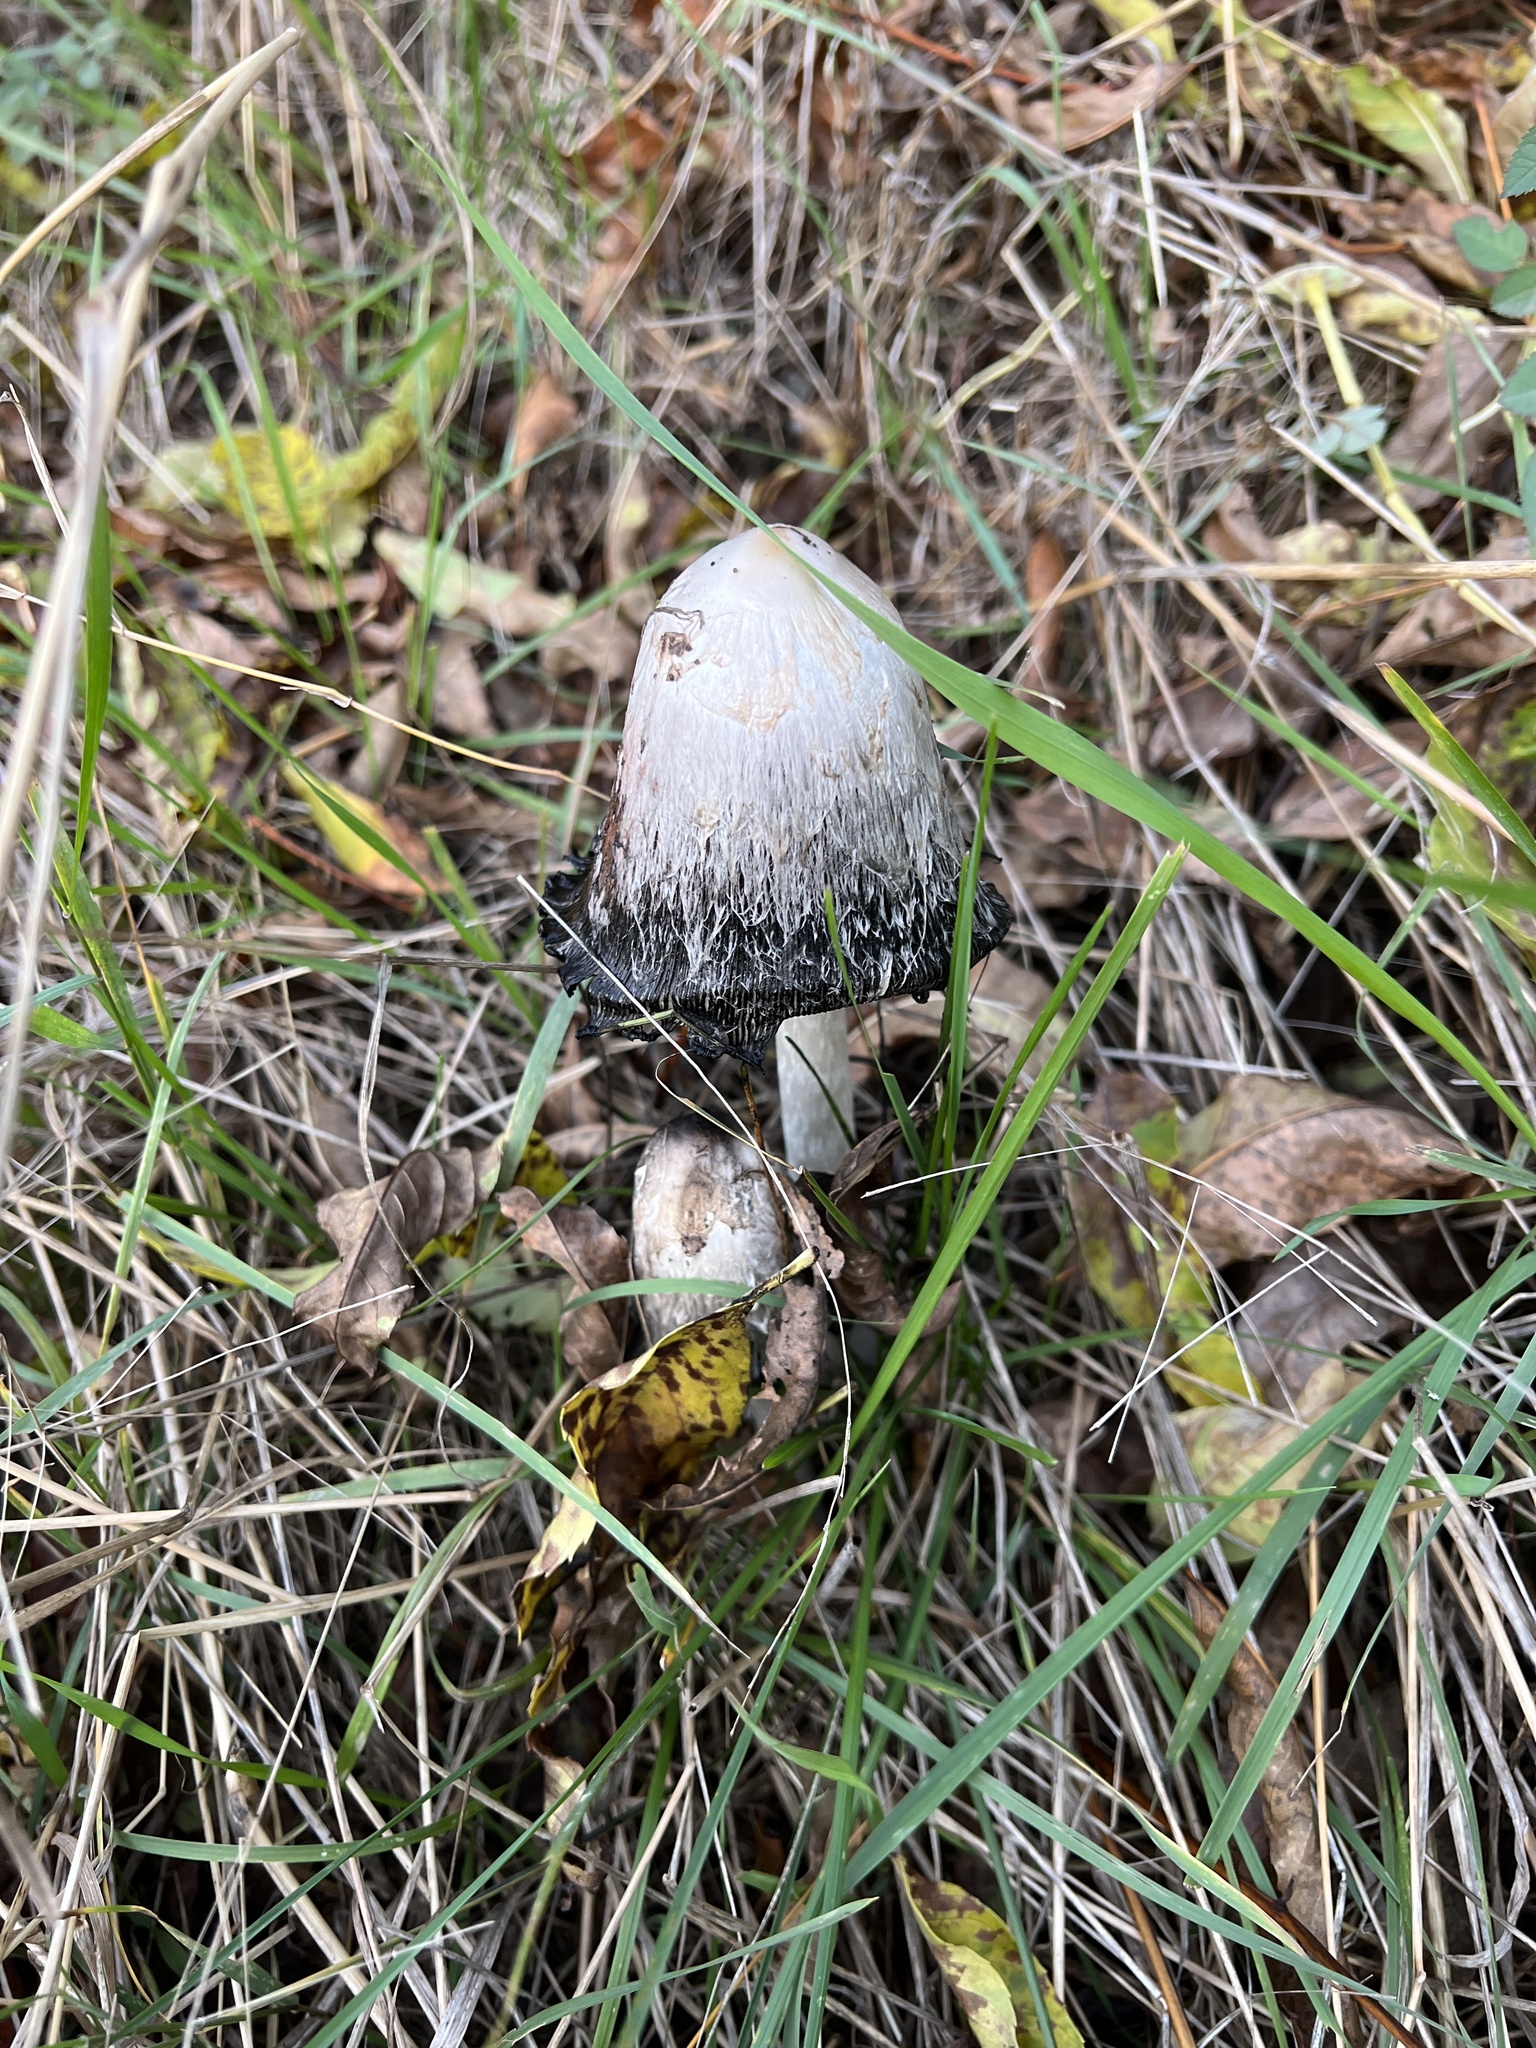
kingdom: Fungi
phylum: Basidiomycota
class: Agaricomycetes
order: Agaricales
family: Agaricaceae
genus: Coprinus
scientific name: Coprinus comatus
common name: Lawyer's wig
